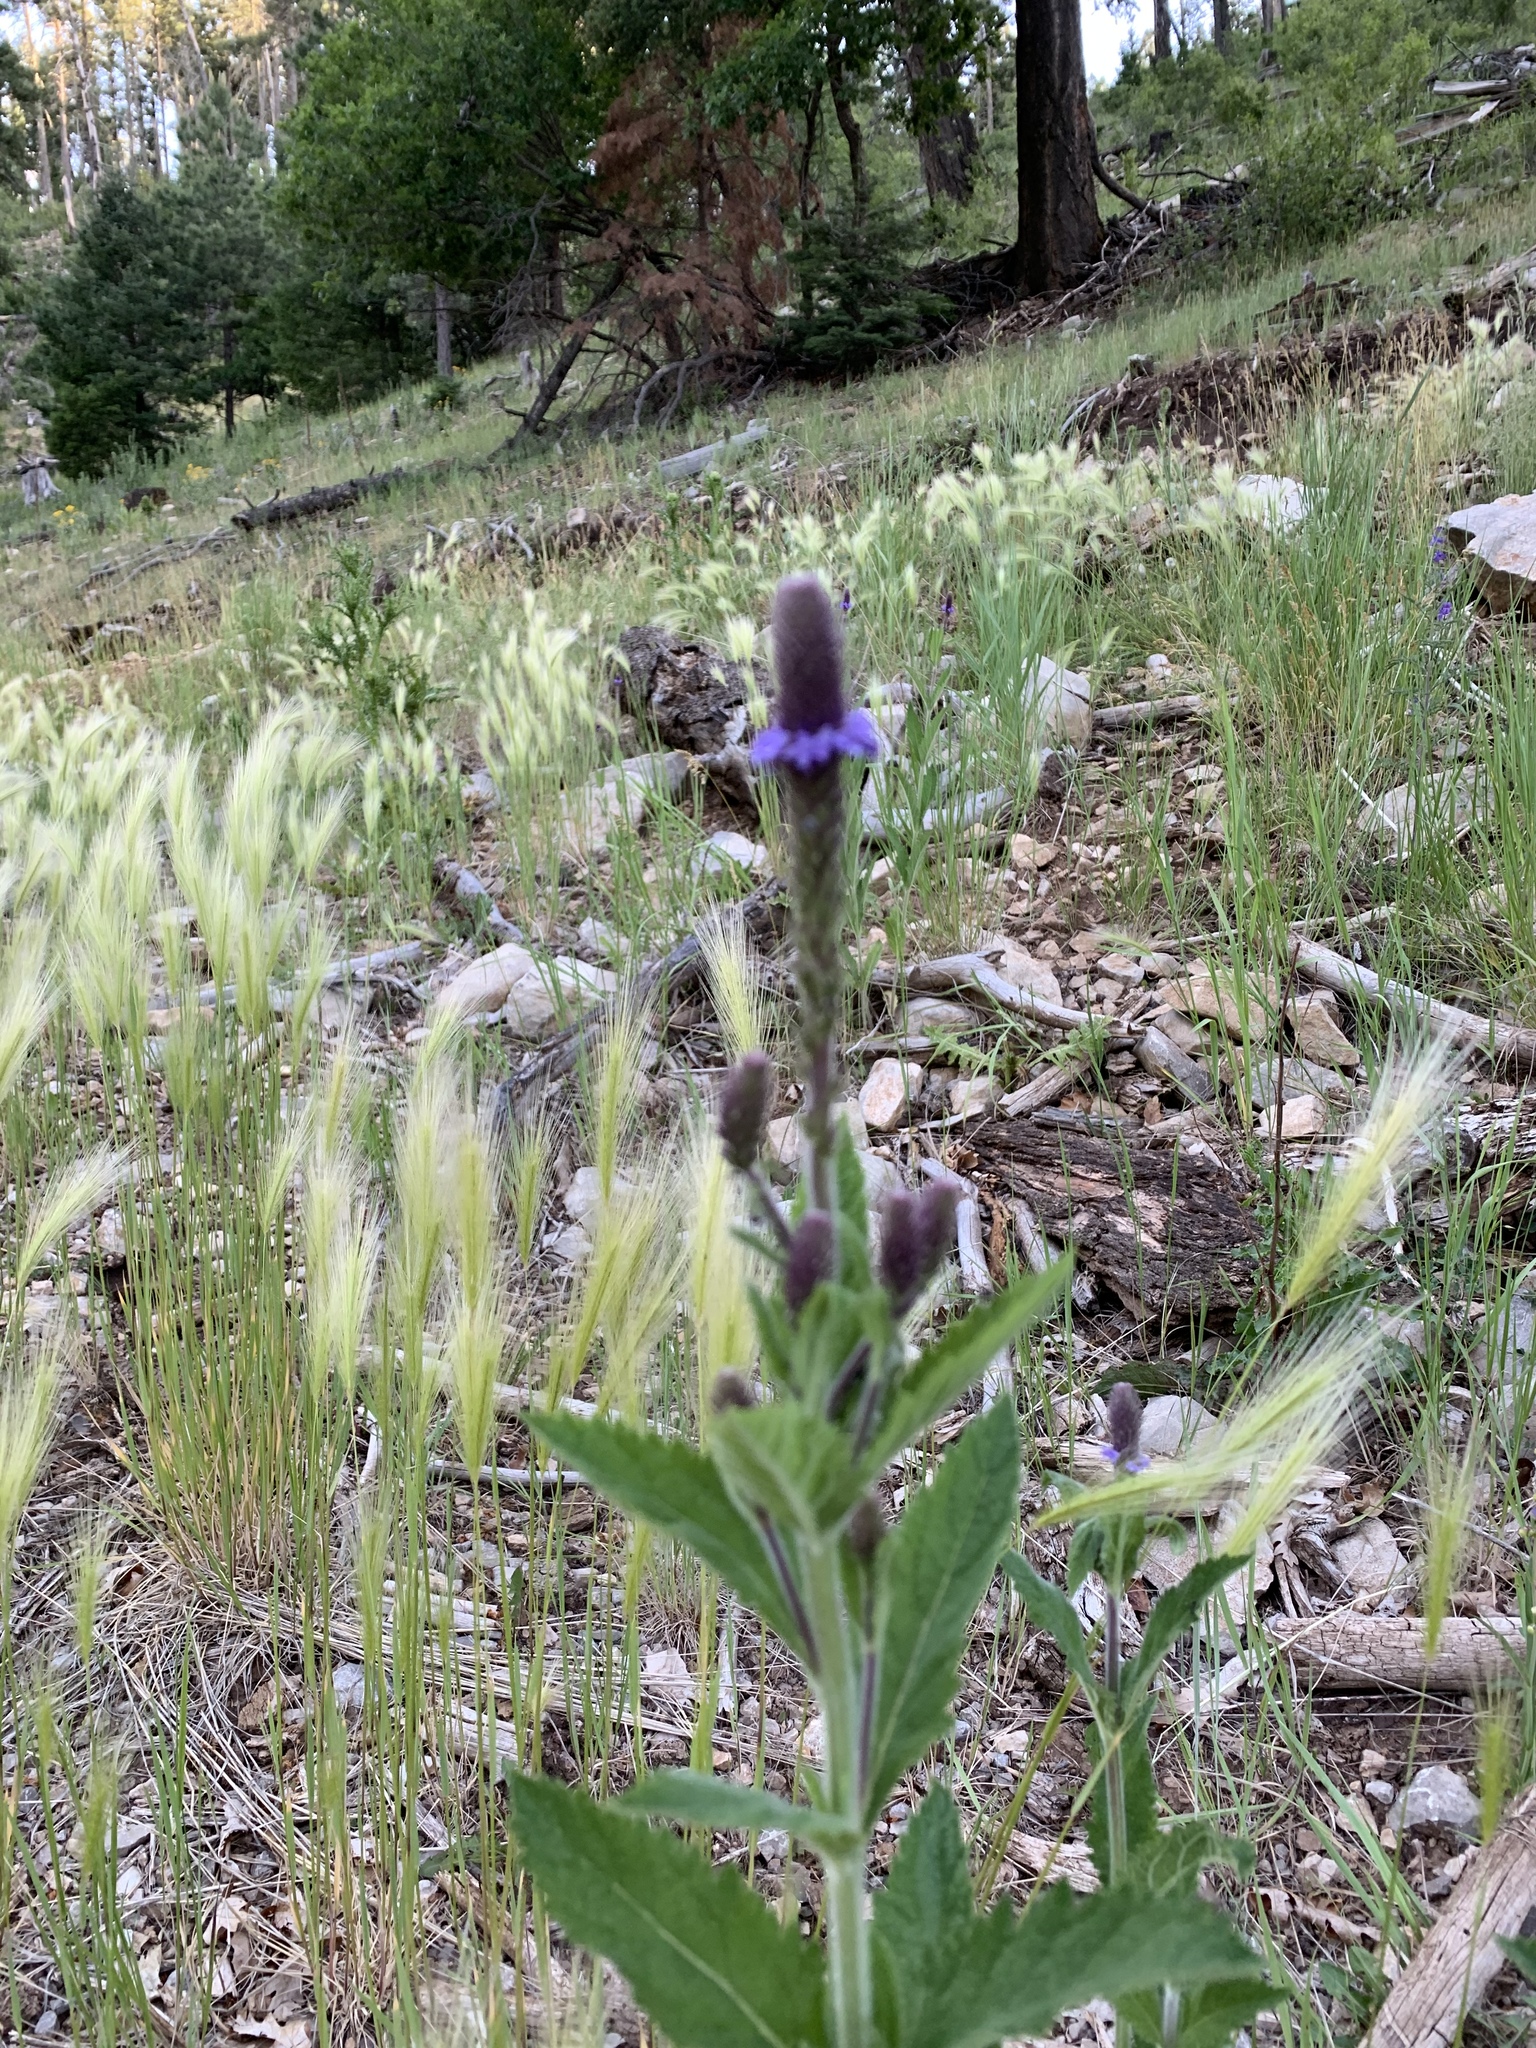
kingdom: Plantae
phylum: Tracheophyta
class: Magnoliopsida
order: Lamiales
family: Verbenaceae
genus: Verbena
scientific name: Verbena macdougalii
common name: New mexico vervain
